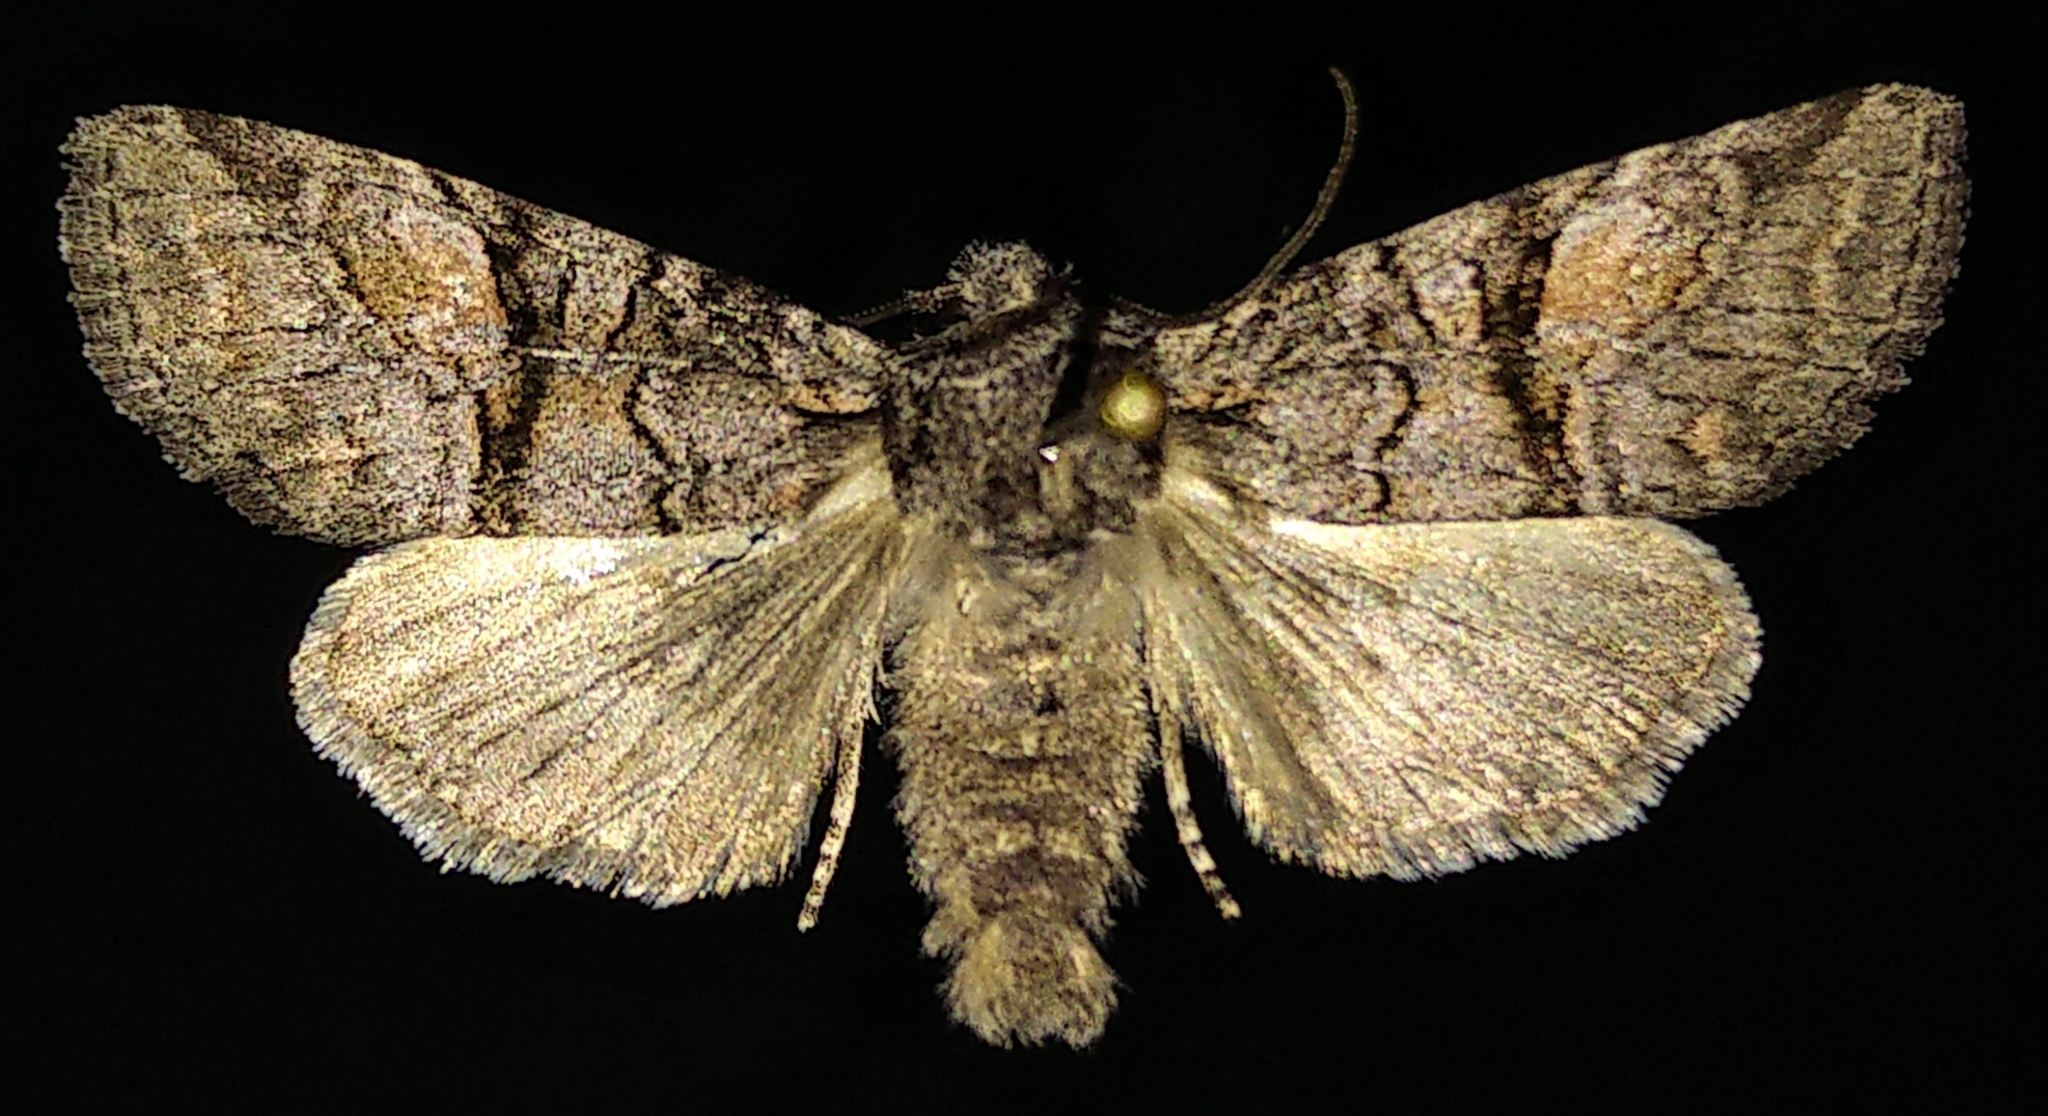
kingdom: Animalia
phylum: Arthropoda
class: Insecta
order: Lepidoptera
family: Noctuidae
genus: Brachylomia
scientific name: Brachylomia cascadia
